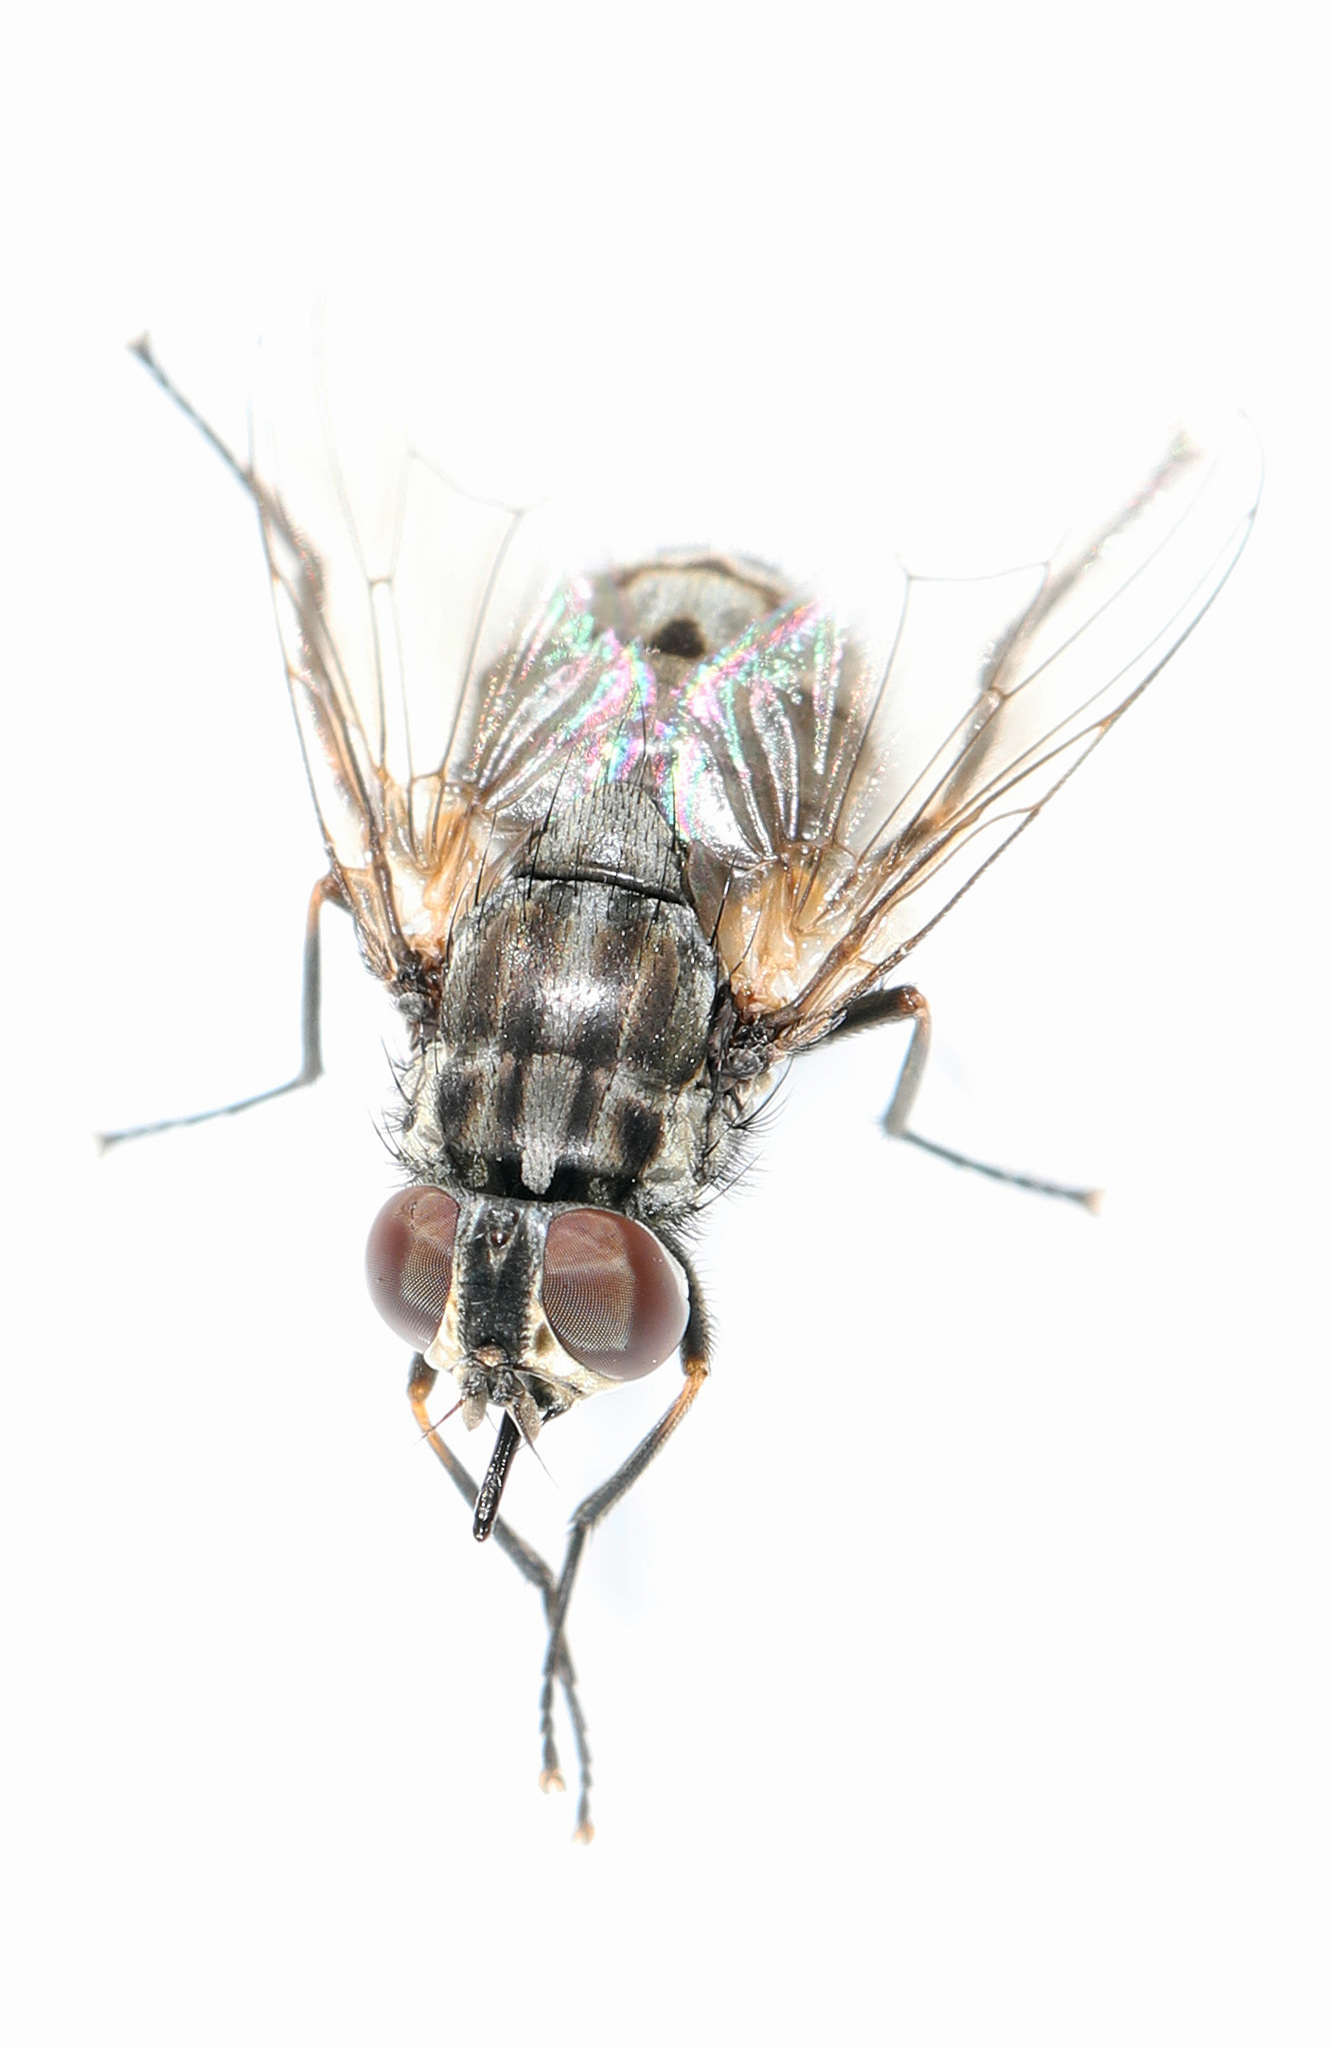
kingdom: Animalia
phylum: Arthropoda
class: Insecta
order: Diptera
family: Muscidae
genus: Stomoxys
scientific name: Stomoxys calcitrans
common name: Stable fly
